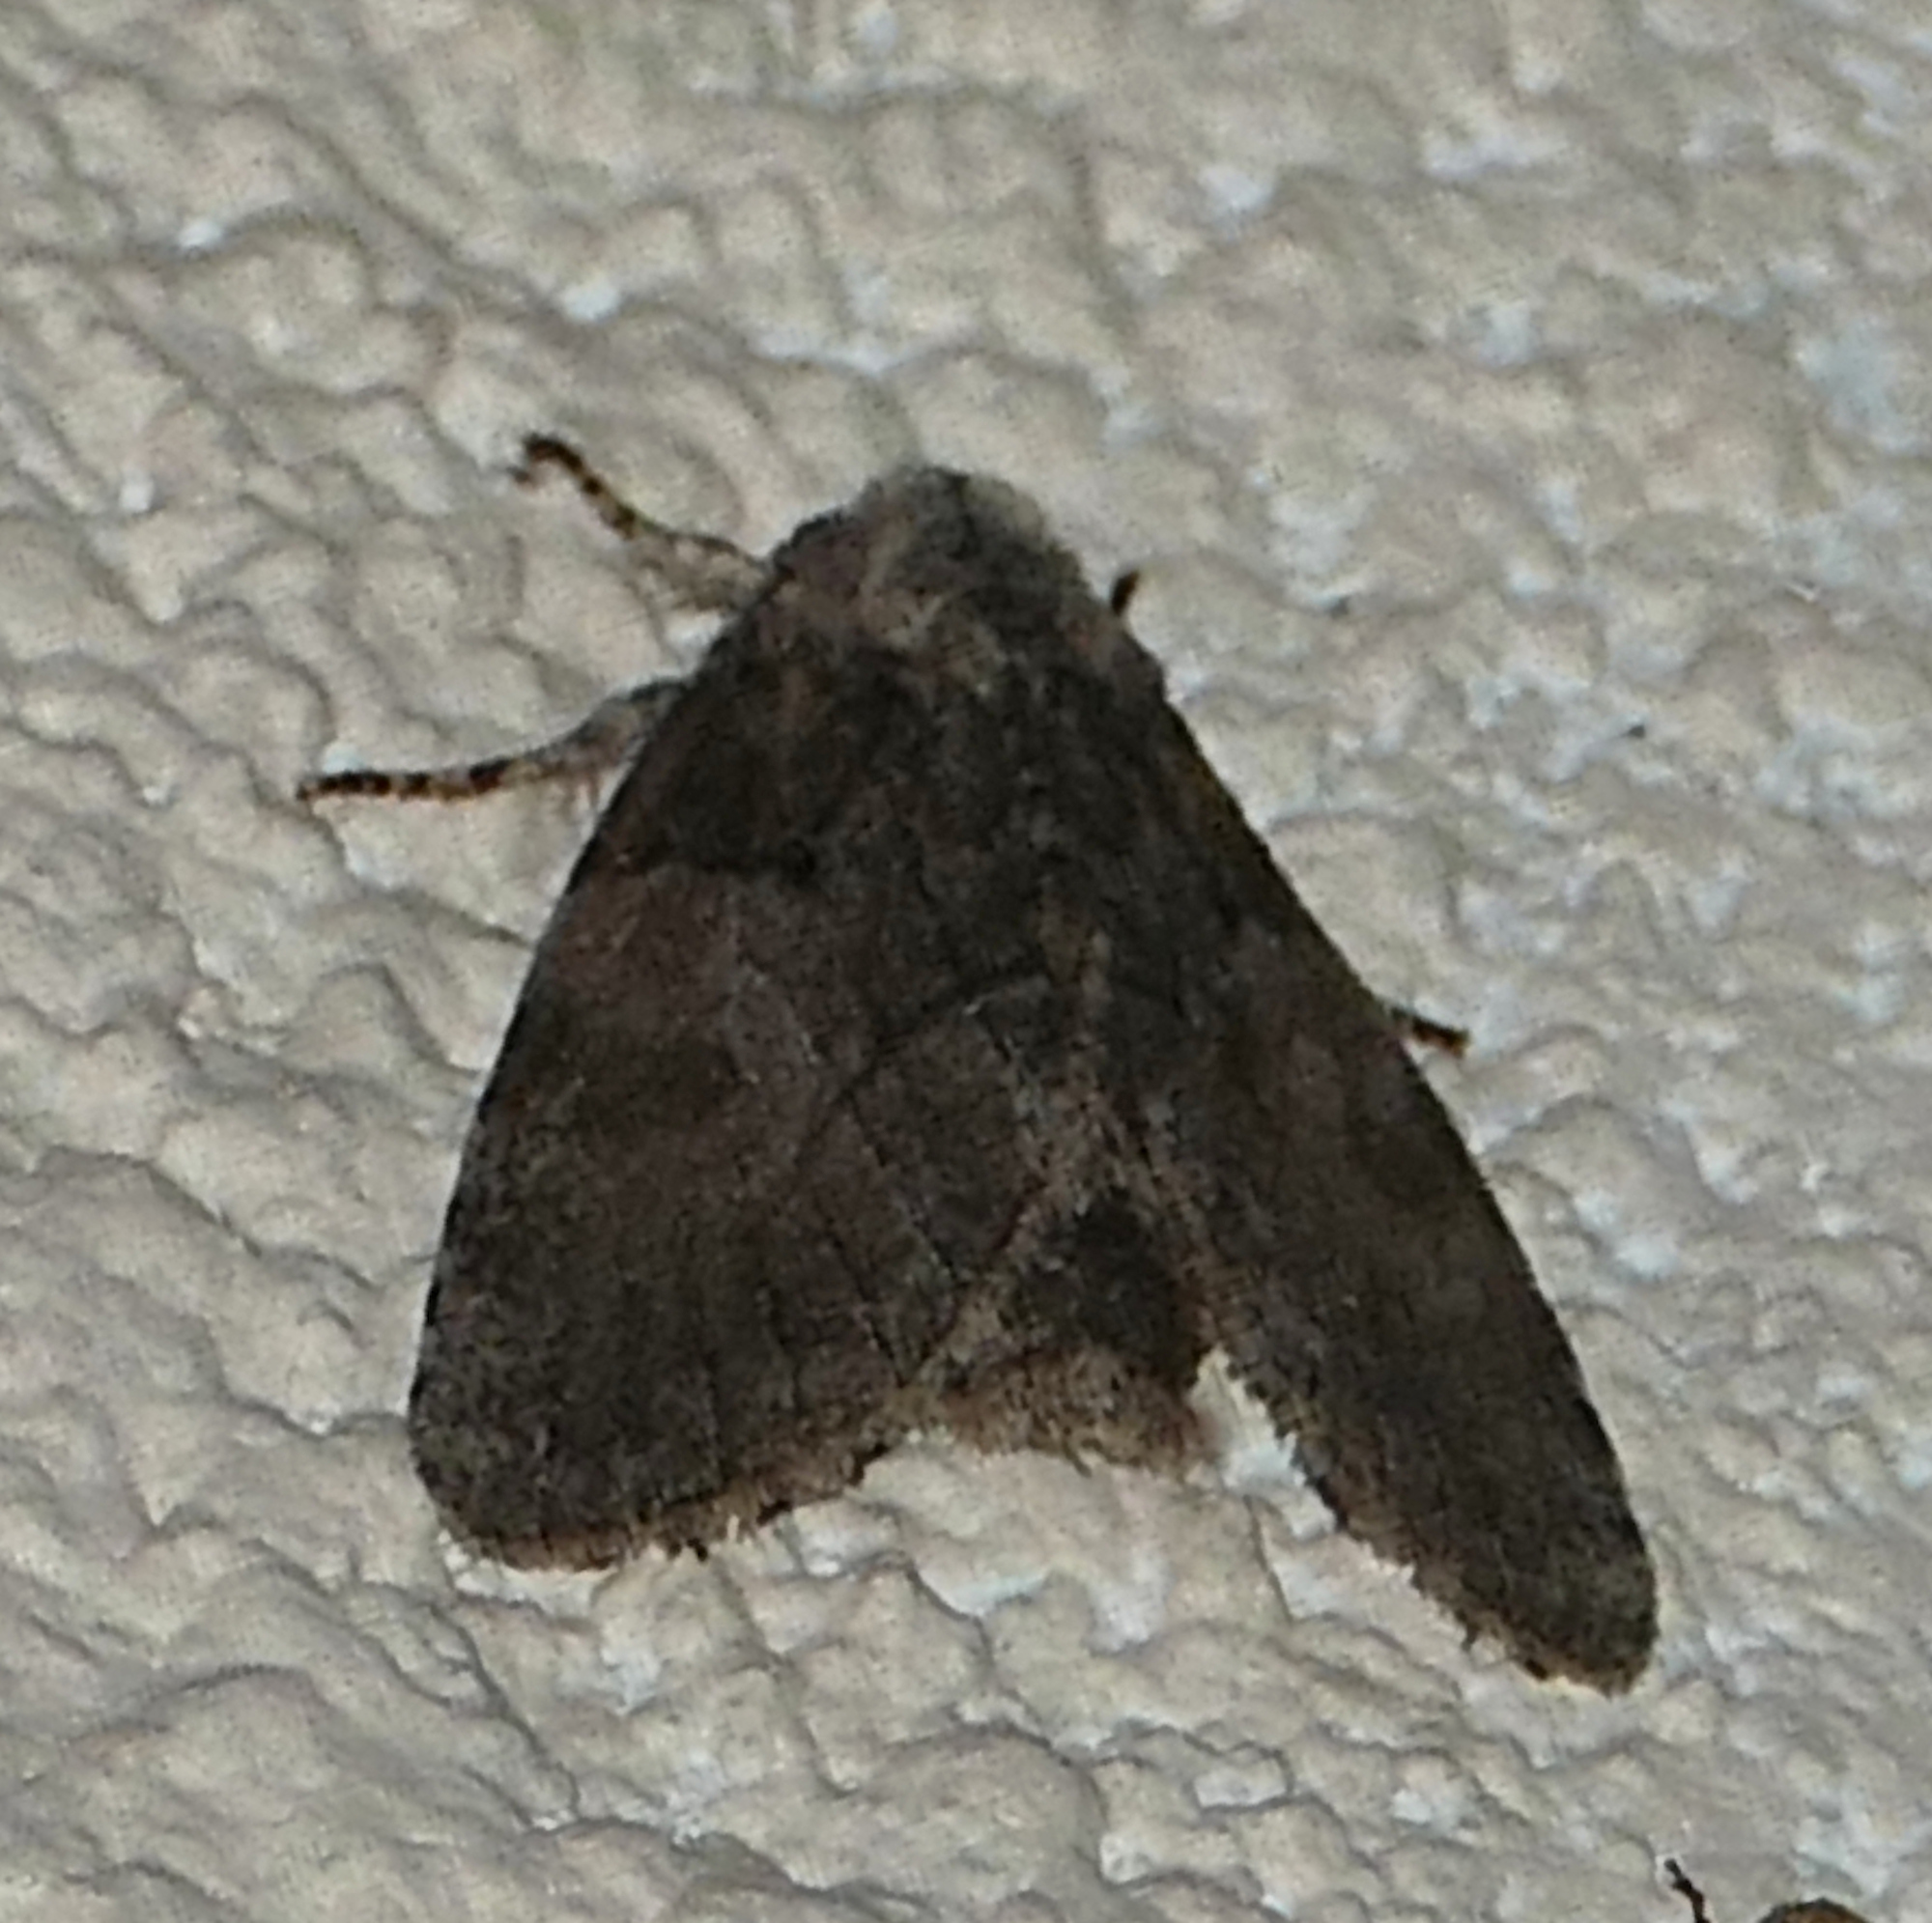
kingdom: Animalia
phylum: Arthropoda
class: Insecta
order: Lepidoptera
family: Noctuidae
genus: Raphia
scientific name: Raphia frater
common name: Brother
